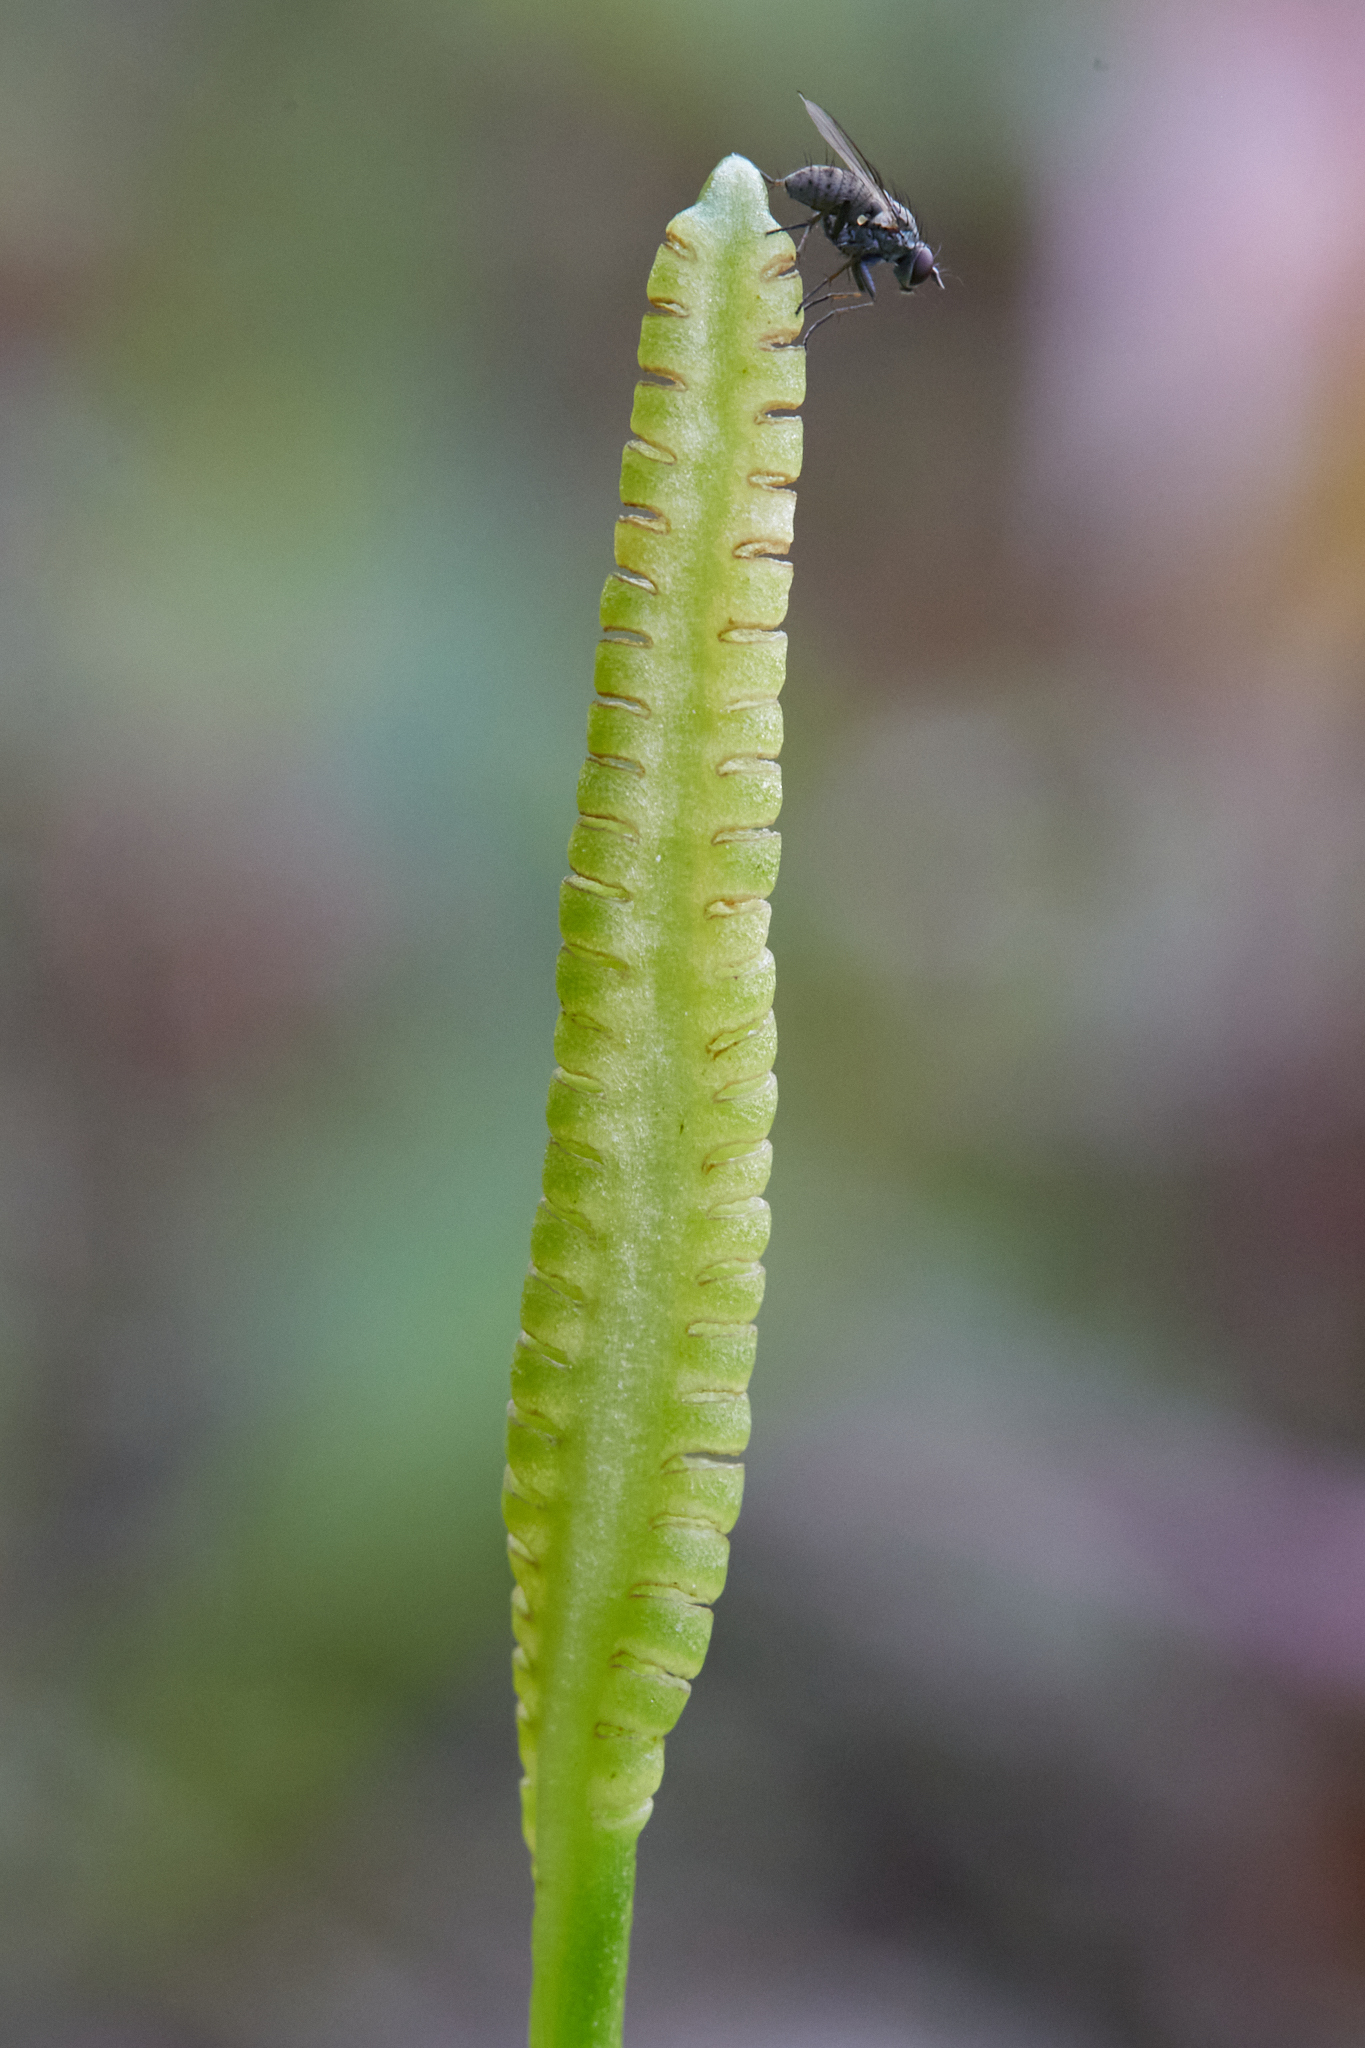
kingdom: Plantae
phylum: Tracheophyta
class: Polypodiopsida
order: Ophioglossales
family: Ophioglossaceae
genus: Ophioglossum
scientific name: Ophioglossum pusillum
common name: Northern adder's-tongue
